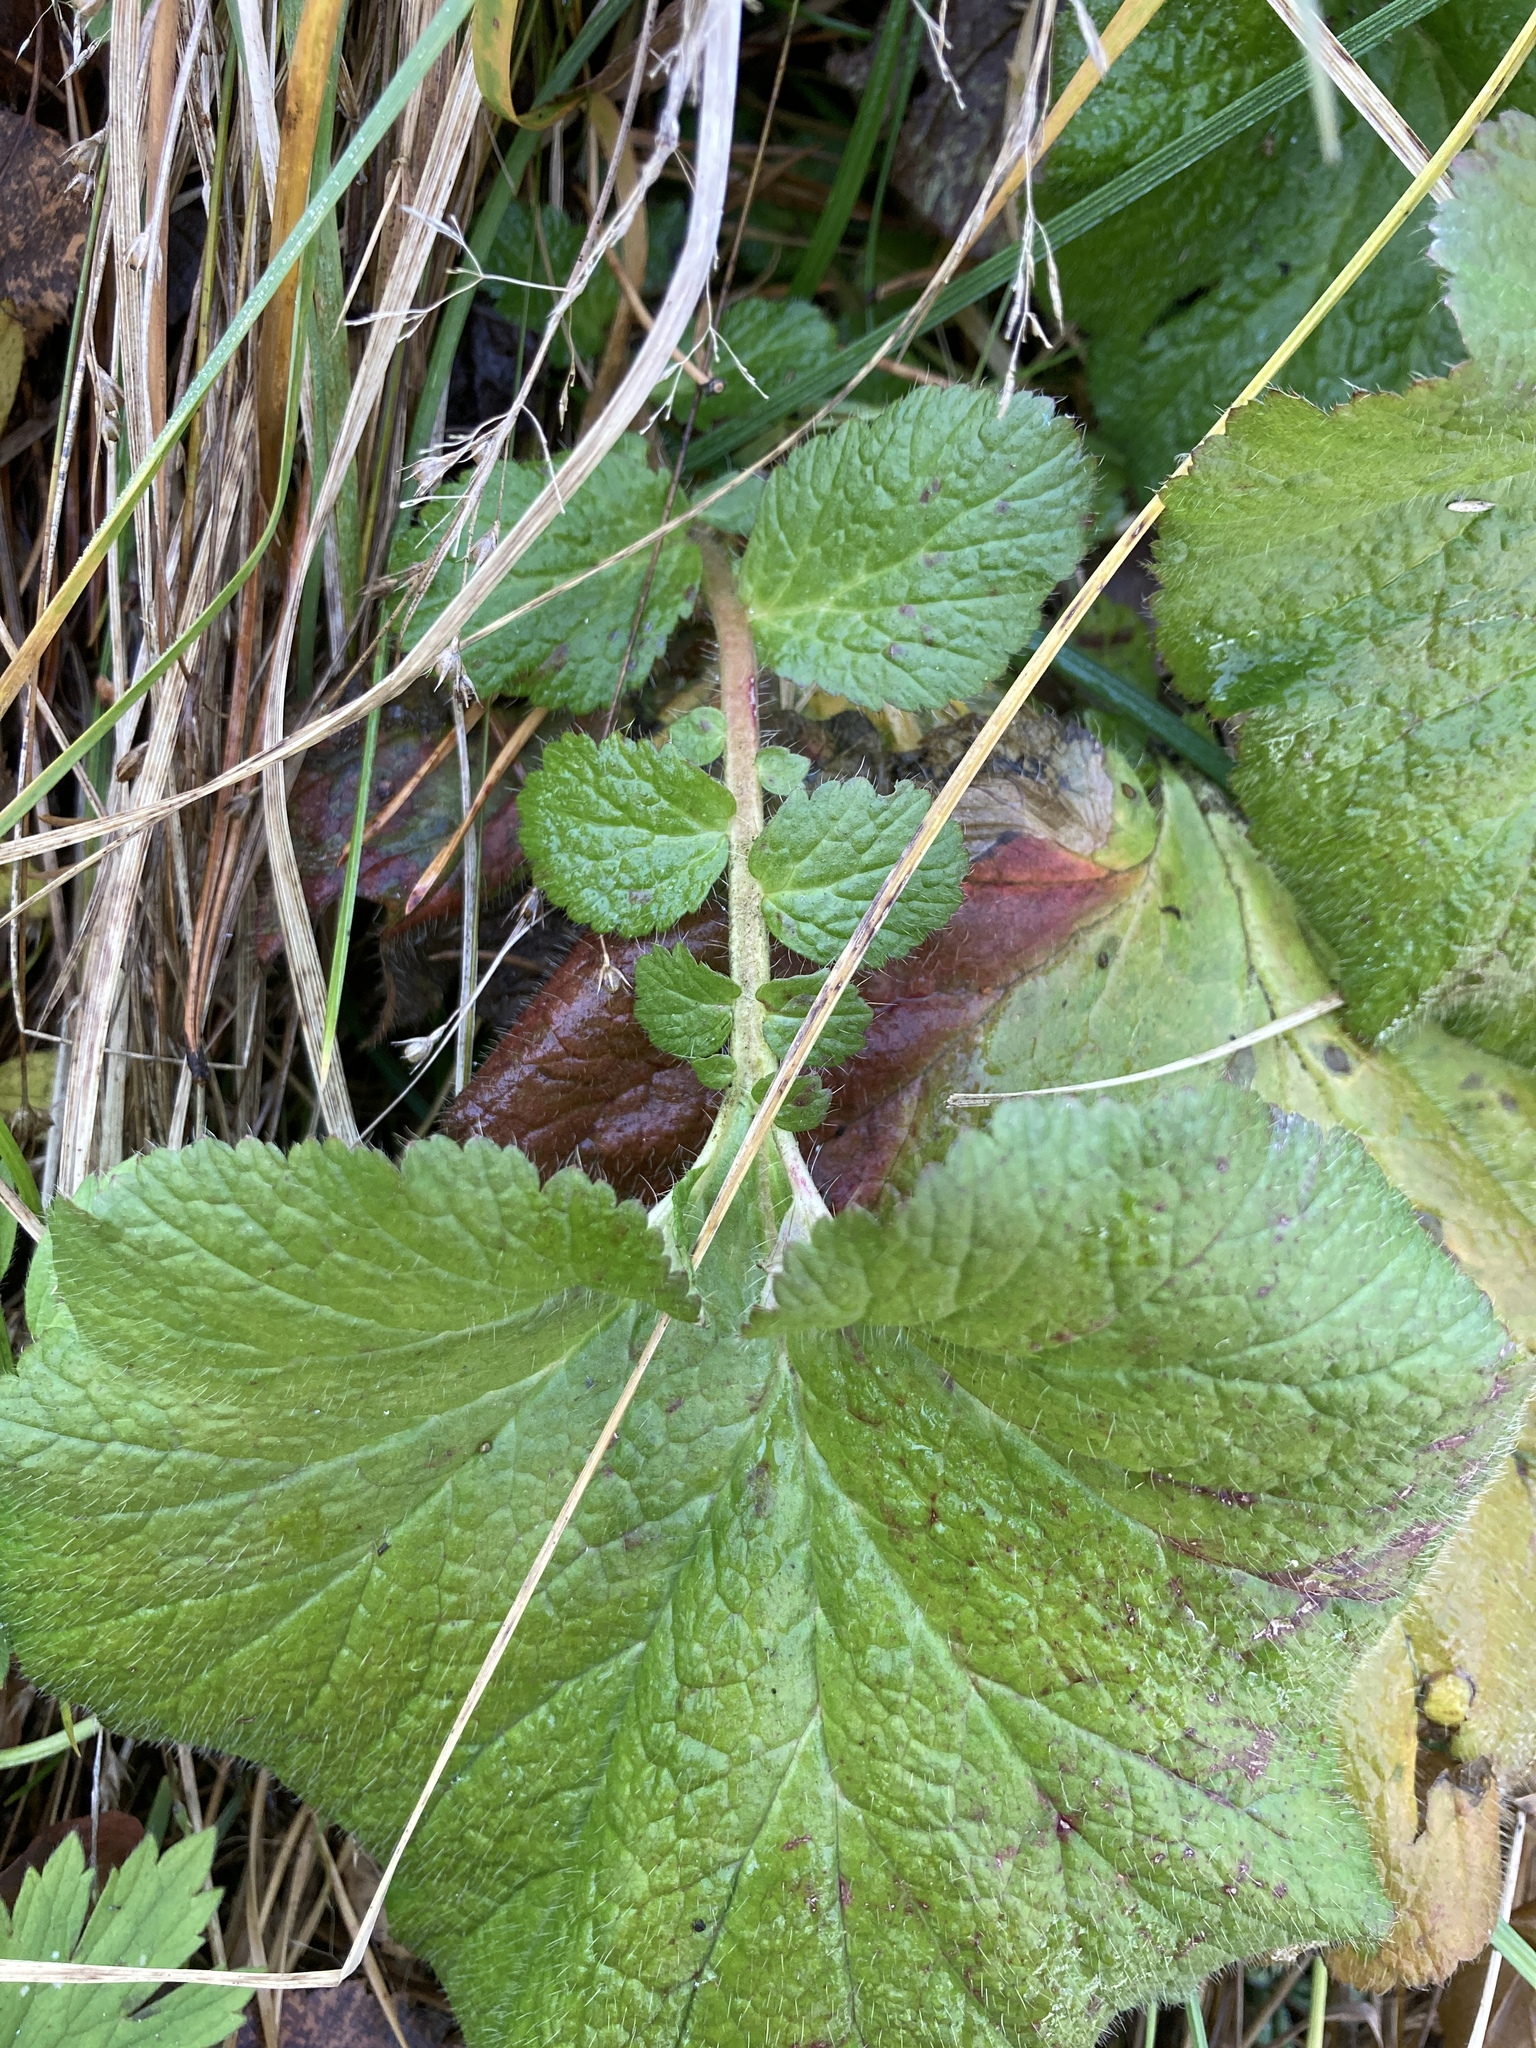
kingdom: Plantae
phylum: Tracheophyta
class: Magnoliopsida
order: Rosales
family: Rosaceae
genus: Geum
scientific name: Geum macrophyllum
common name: Large-leaved avens
